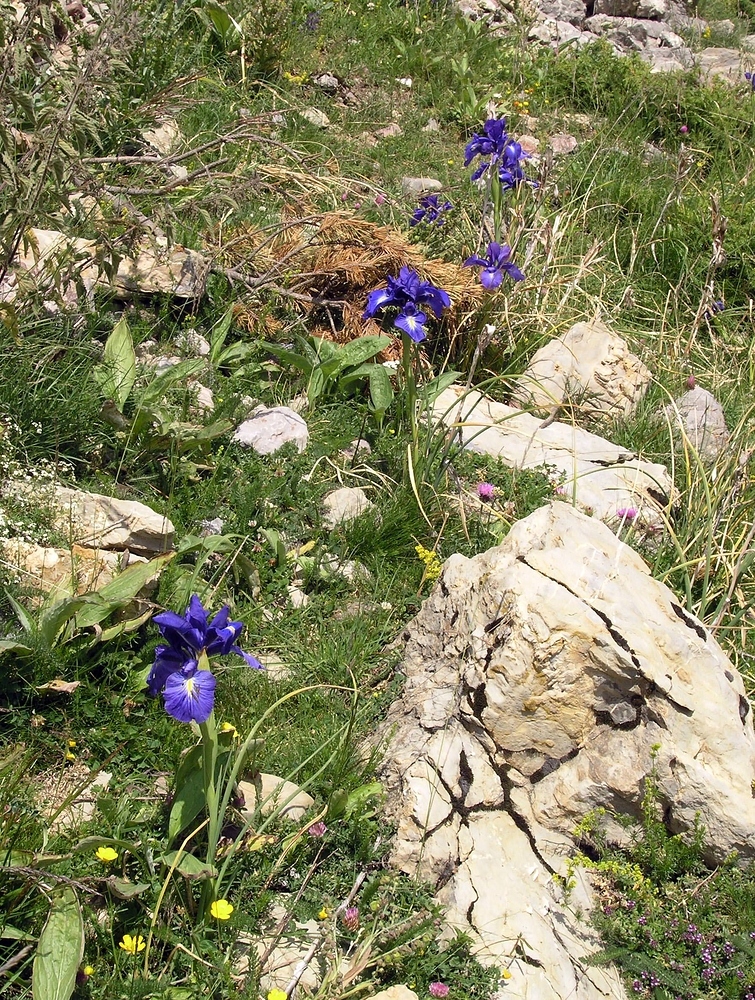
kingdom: Plantae
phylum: Tracheophyta
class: Liliopsida
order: Asparagales
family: Iridaceae
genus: Iris
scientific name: Iris
